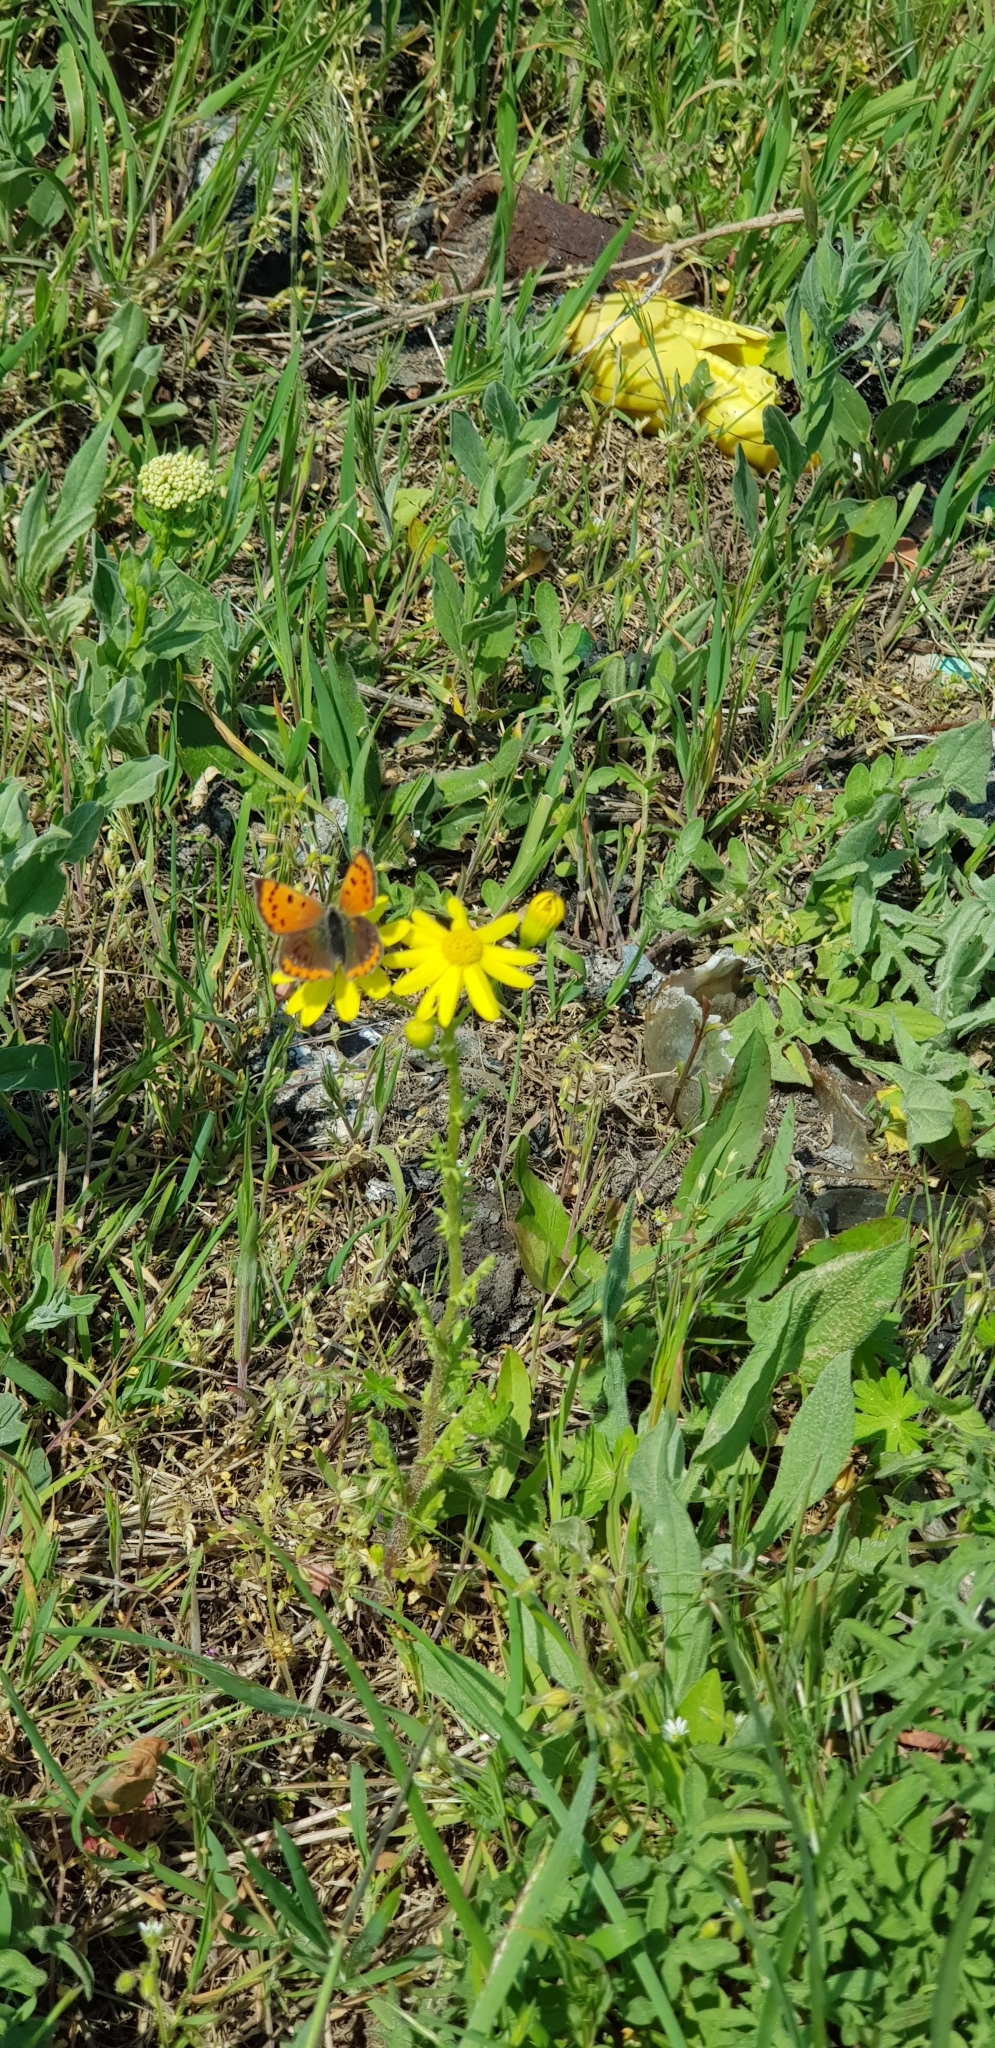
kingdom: Animalia
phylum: Arthropoda
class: Insecta
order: Lepidoptera
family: Lycaenidae
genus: Lycaena
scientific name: Lycaena phlaeas
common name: Small copper
